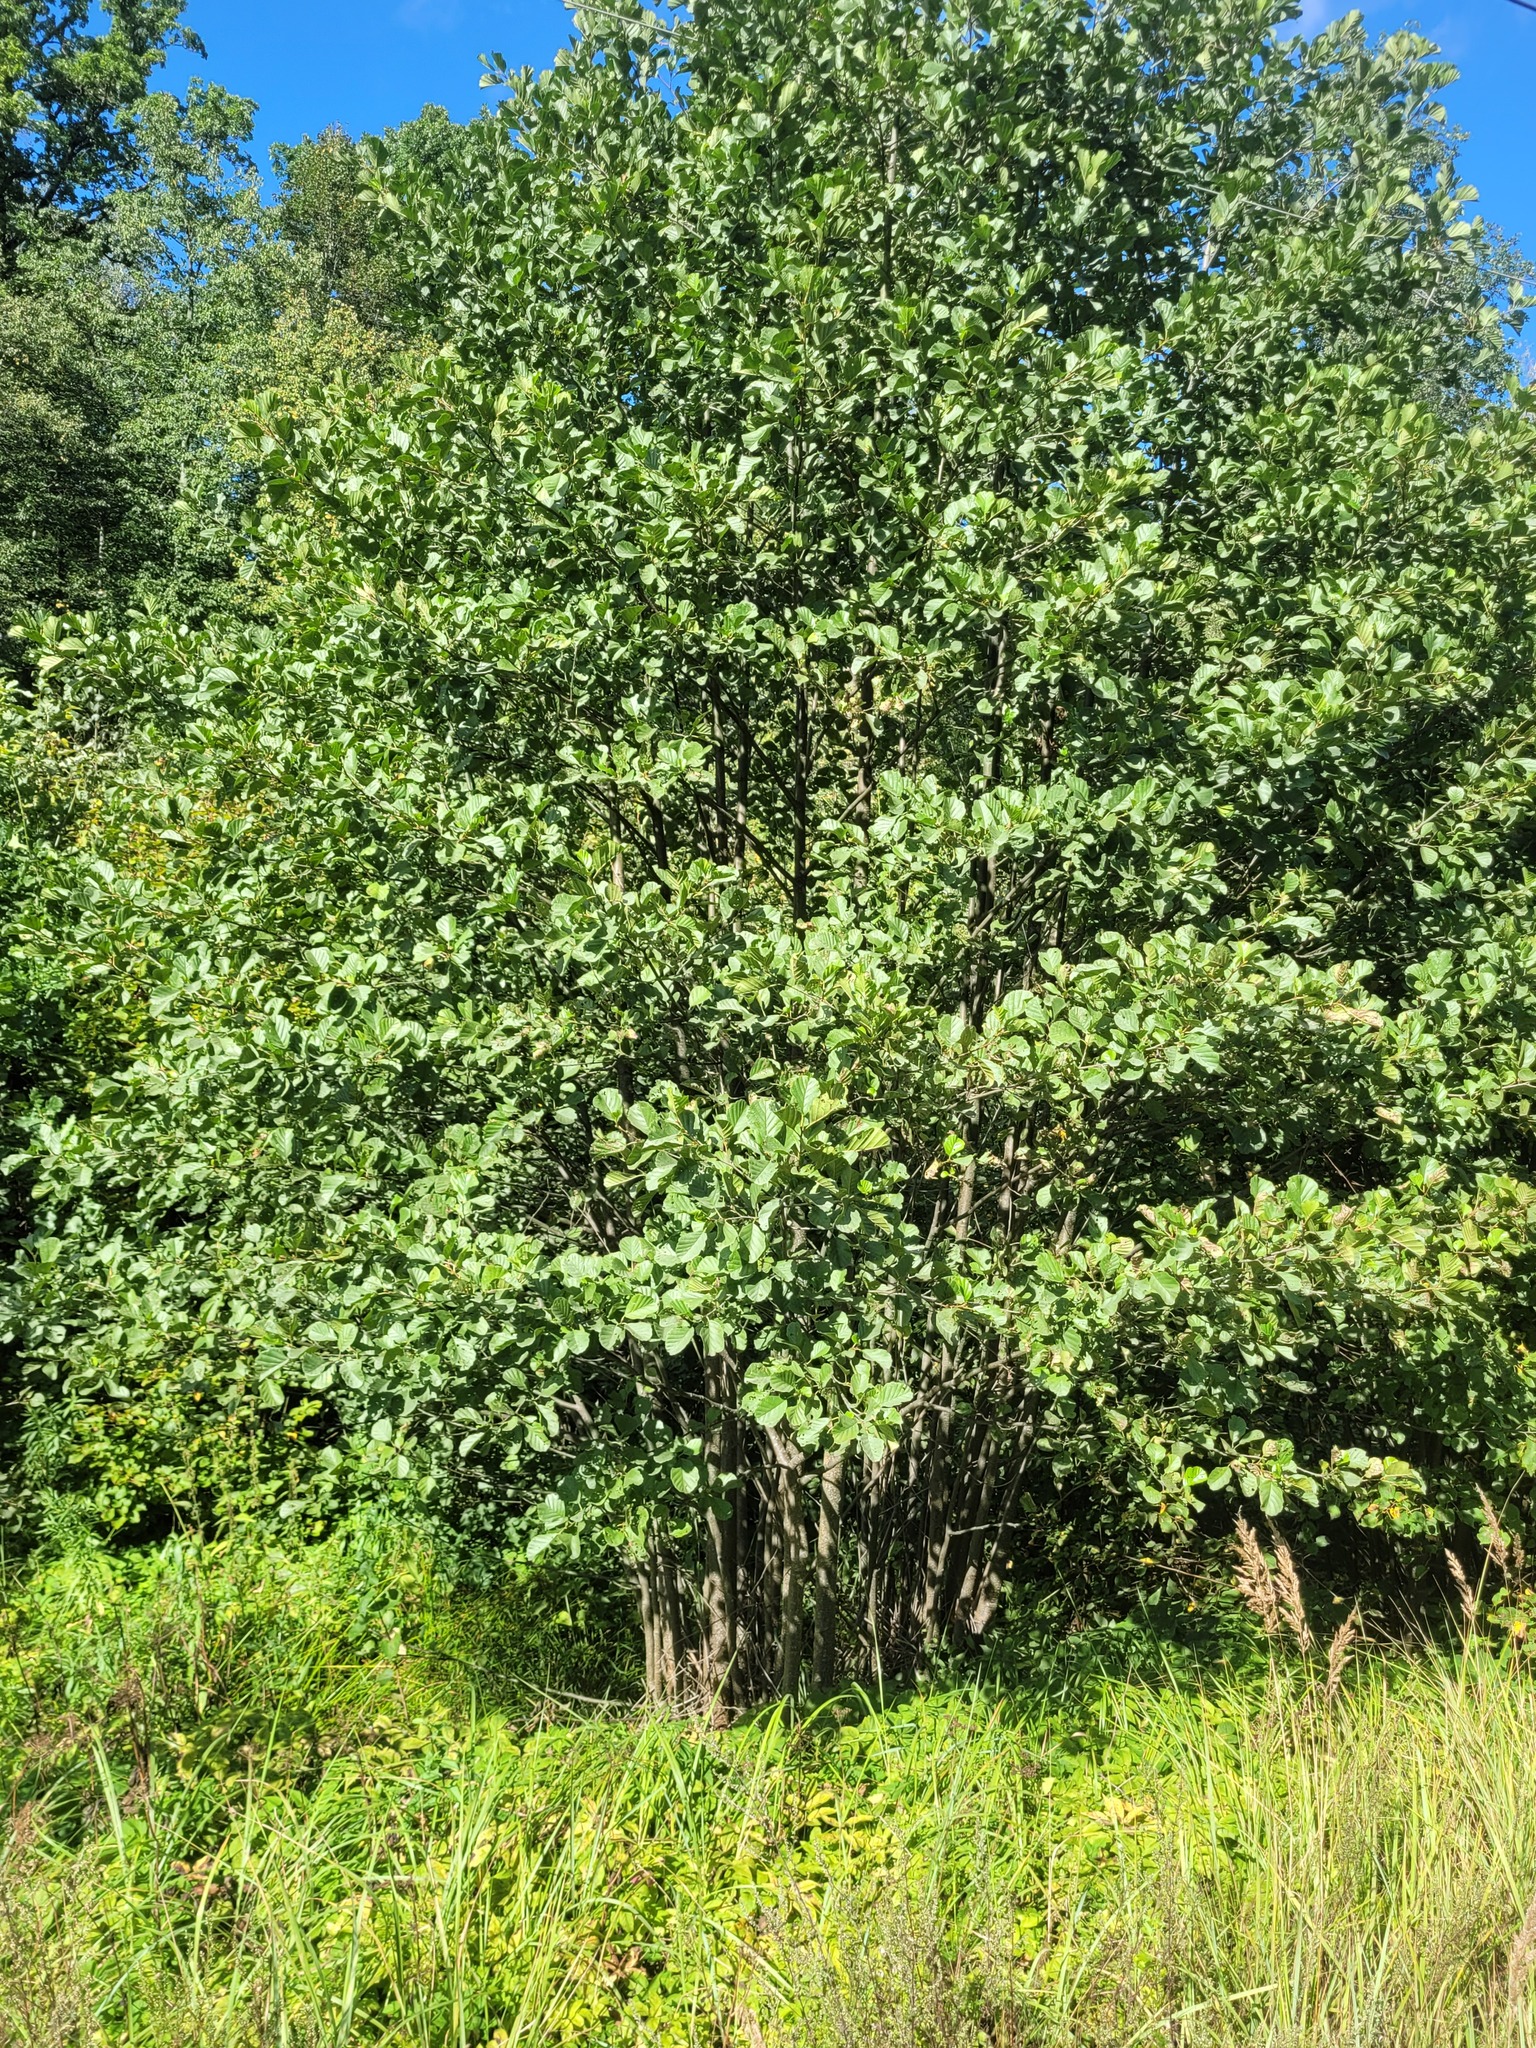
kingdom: Plantae
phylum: Tracheophyta
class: Magnoliopsida
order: Fagales
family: Betulaceae
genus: Alnus
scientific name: Alnus glutinosa
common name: Black alder
